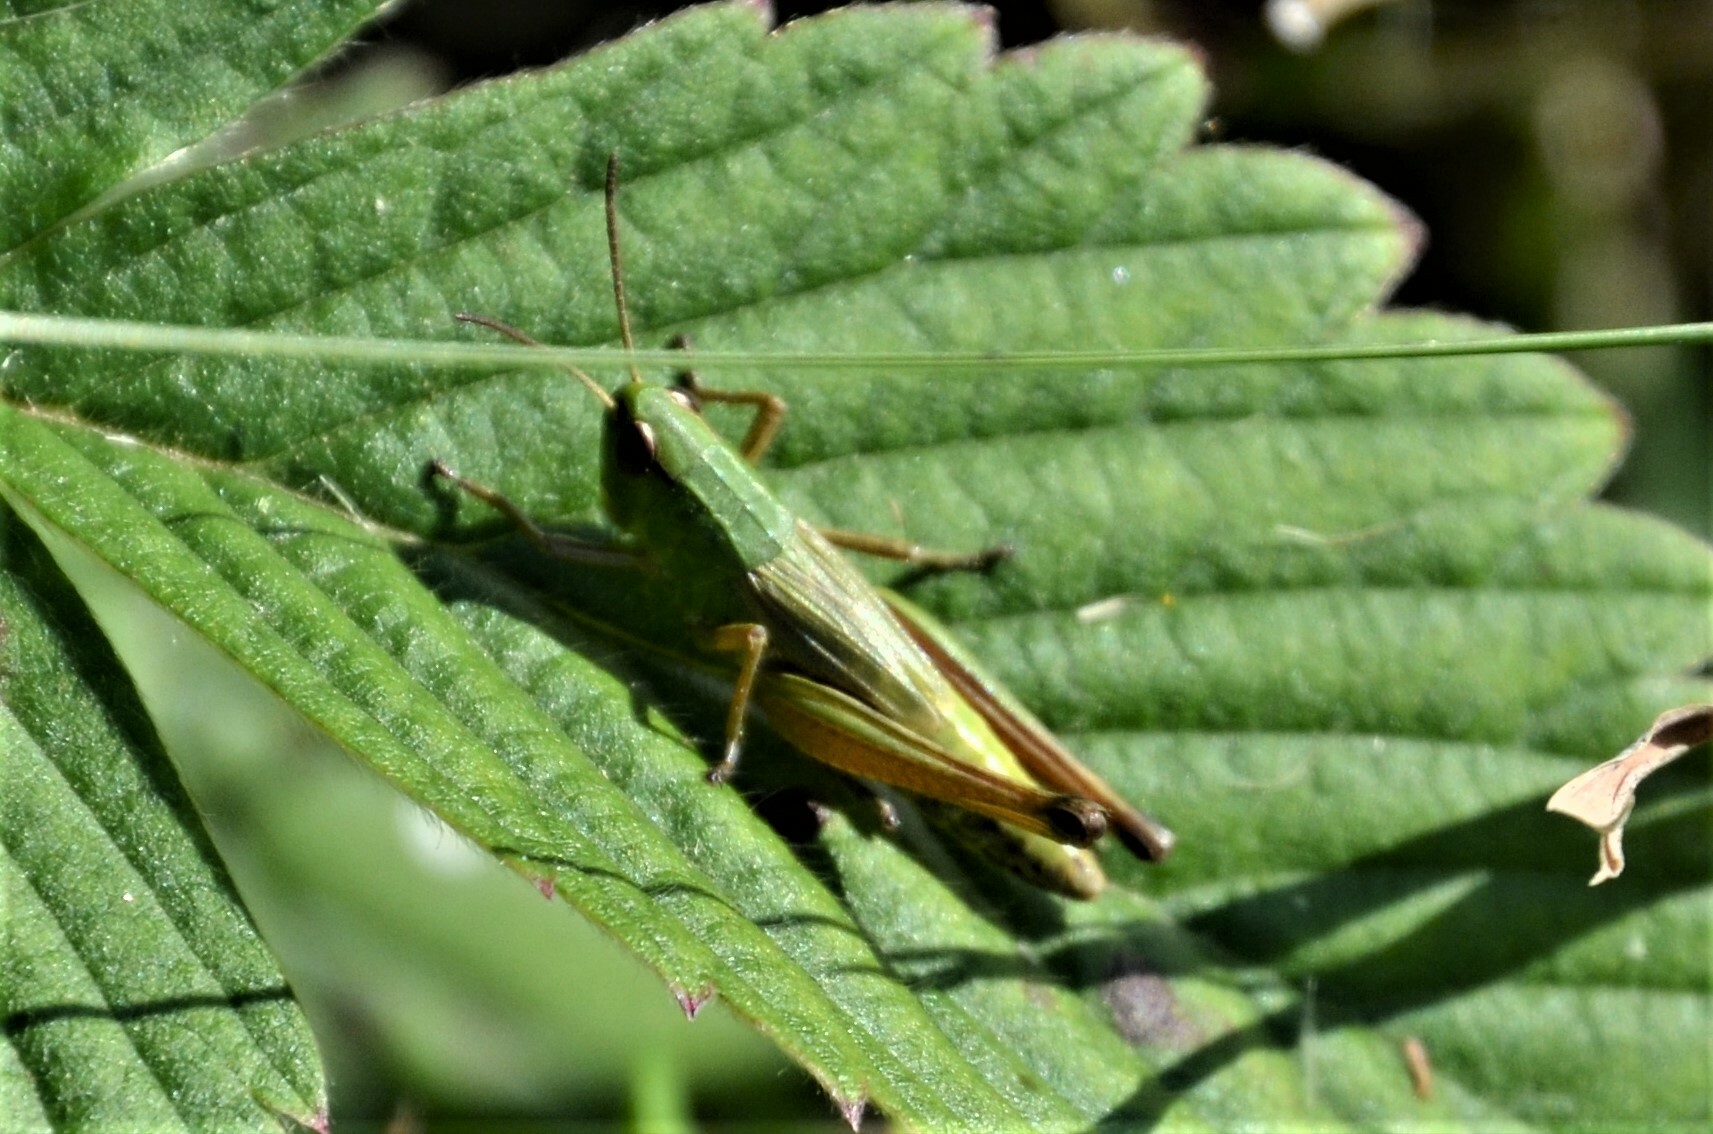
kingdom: Animalia
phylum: Arthropoda
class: Insecta
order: Orthoptera
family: Acrididae
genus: Pseudochorthippus
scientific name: Pseudochorthippus parallelus
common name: Meadow grasshopper
